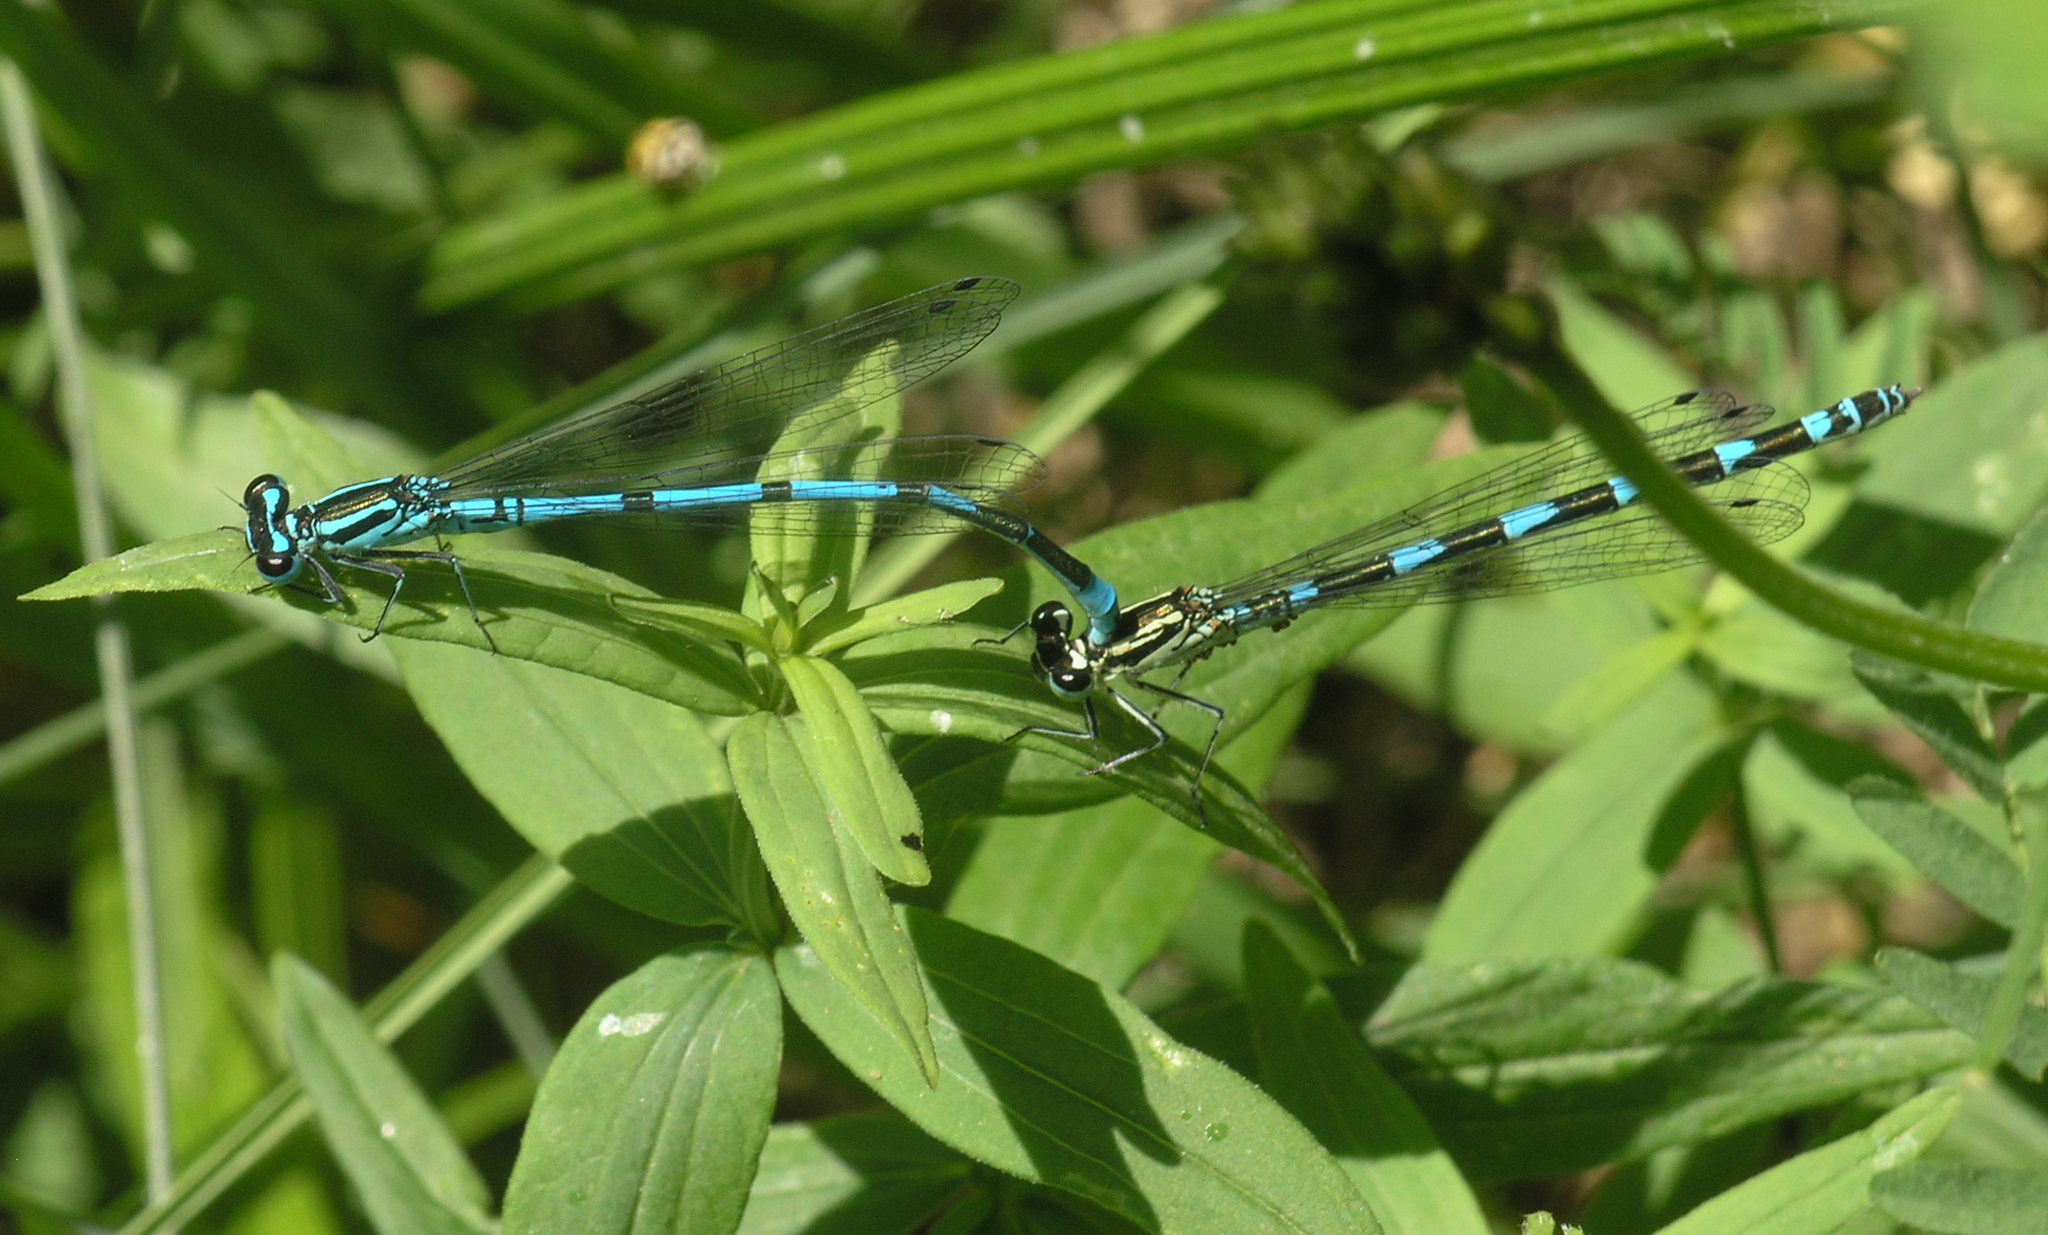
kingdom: Animalia
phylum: Arthropoda
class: Insecta
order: Odonata
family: Coenagrionidae
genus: Coenagrion
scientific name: Coenagrion puella
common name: Azure damselfly
